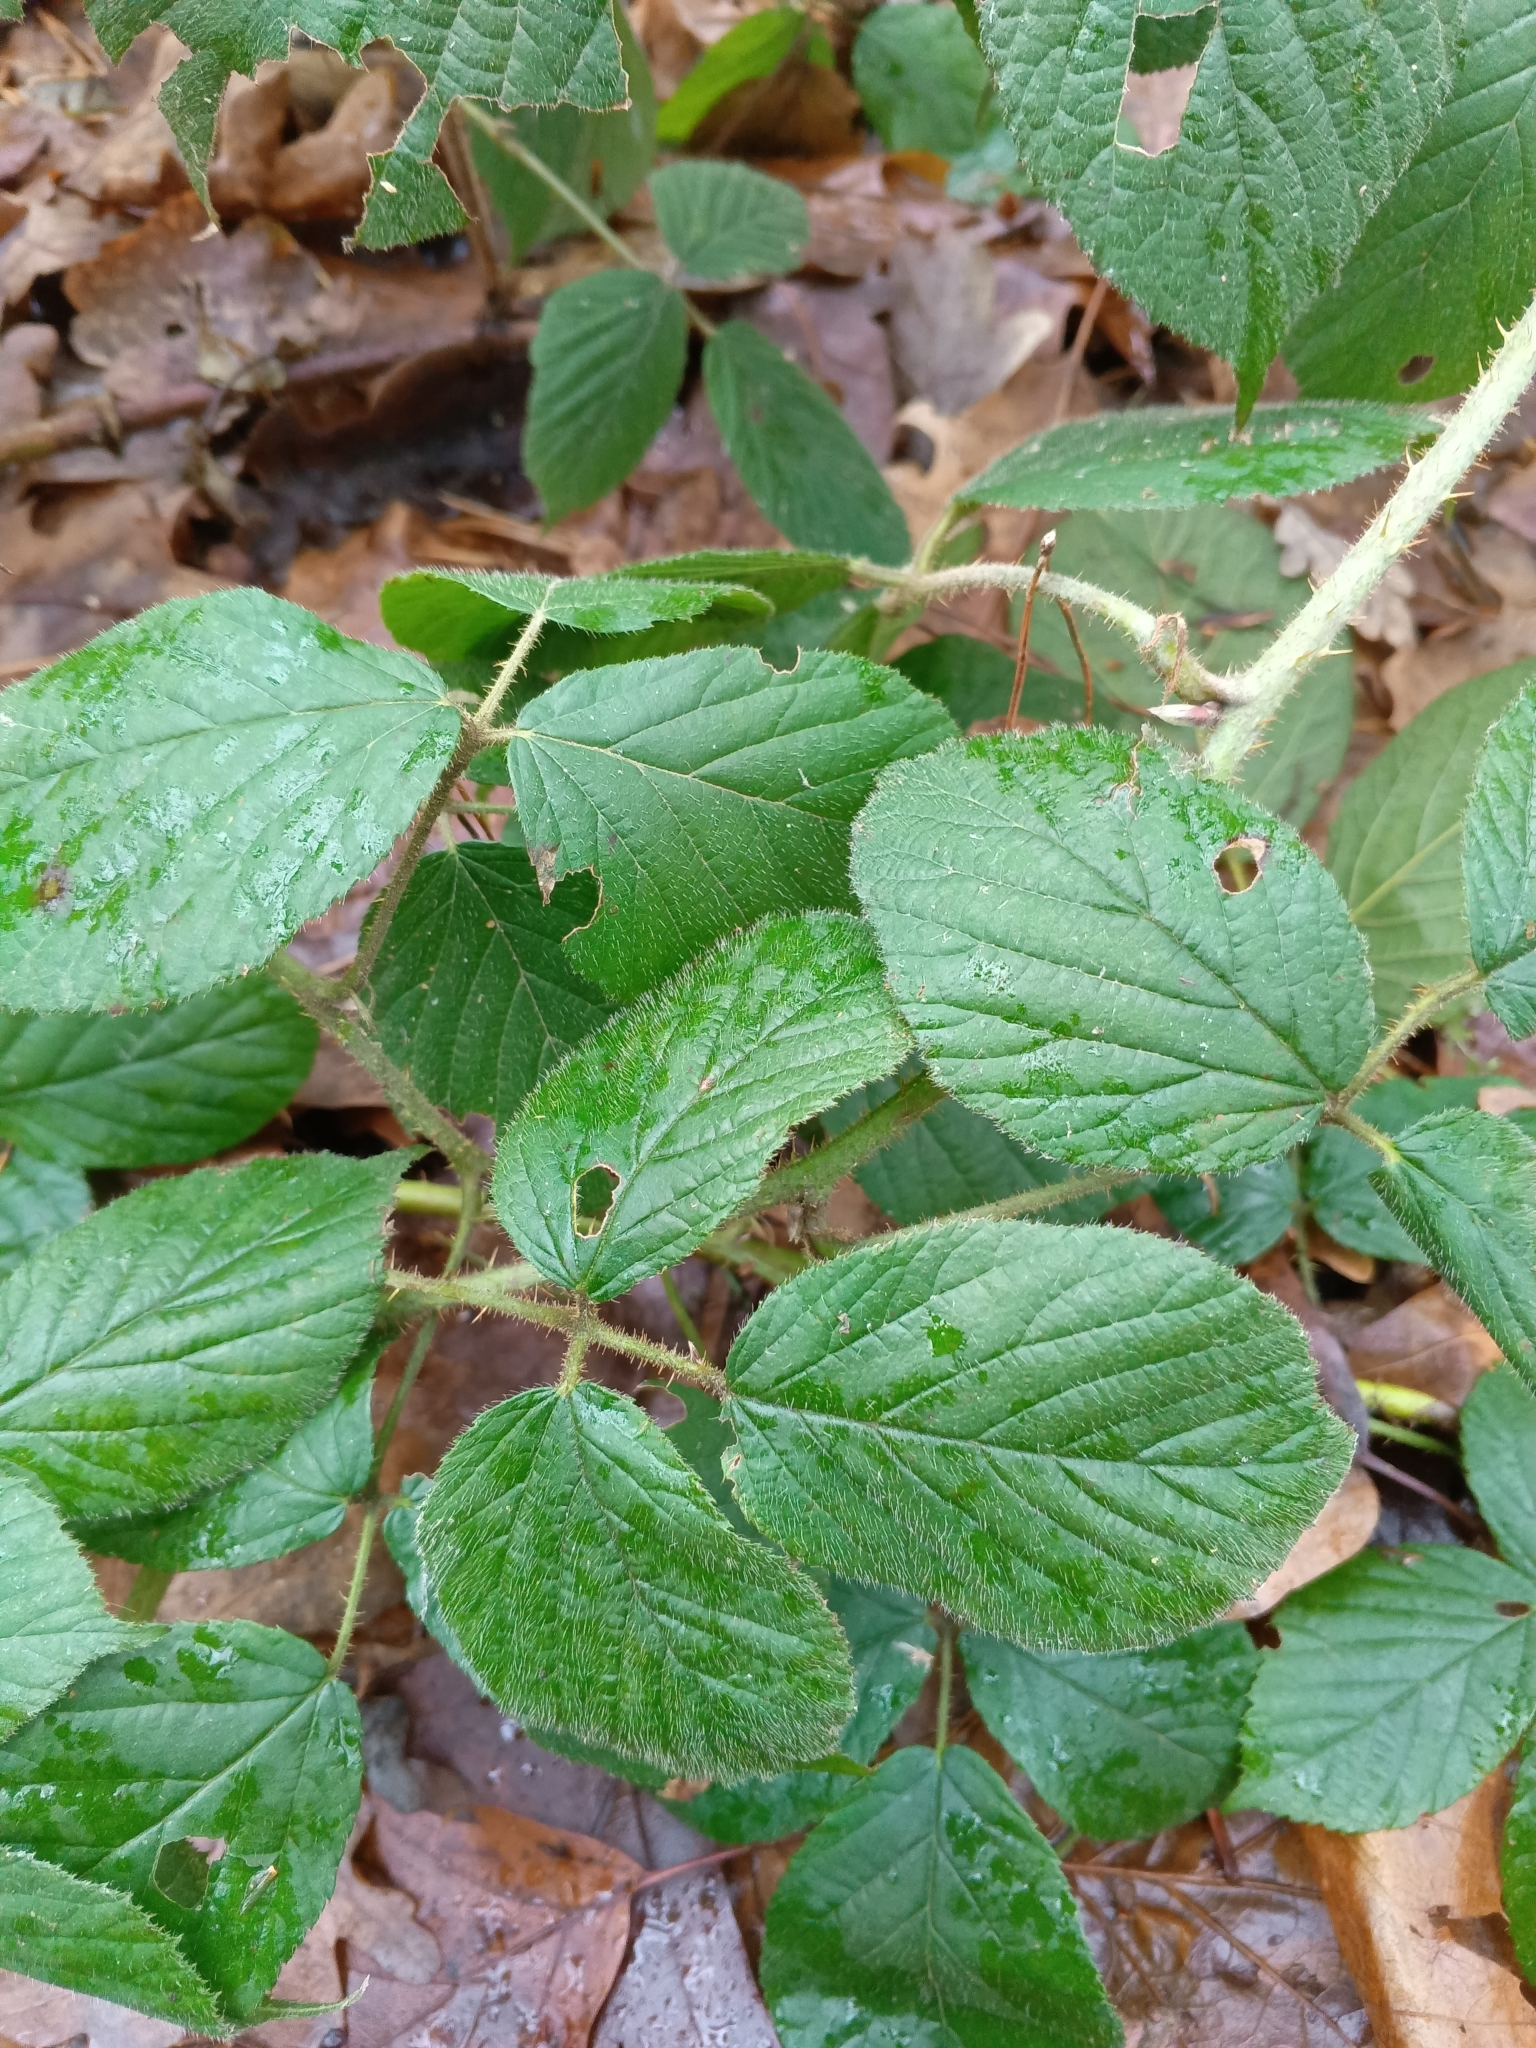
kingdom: Plantae
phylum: Tracheophyta
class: Magnoliopsida
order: Rosales
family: Rosaceae
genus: Rubus
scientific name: Rubus nigricans
